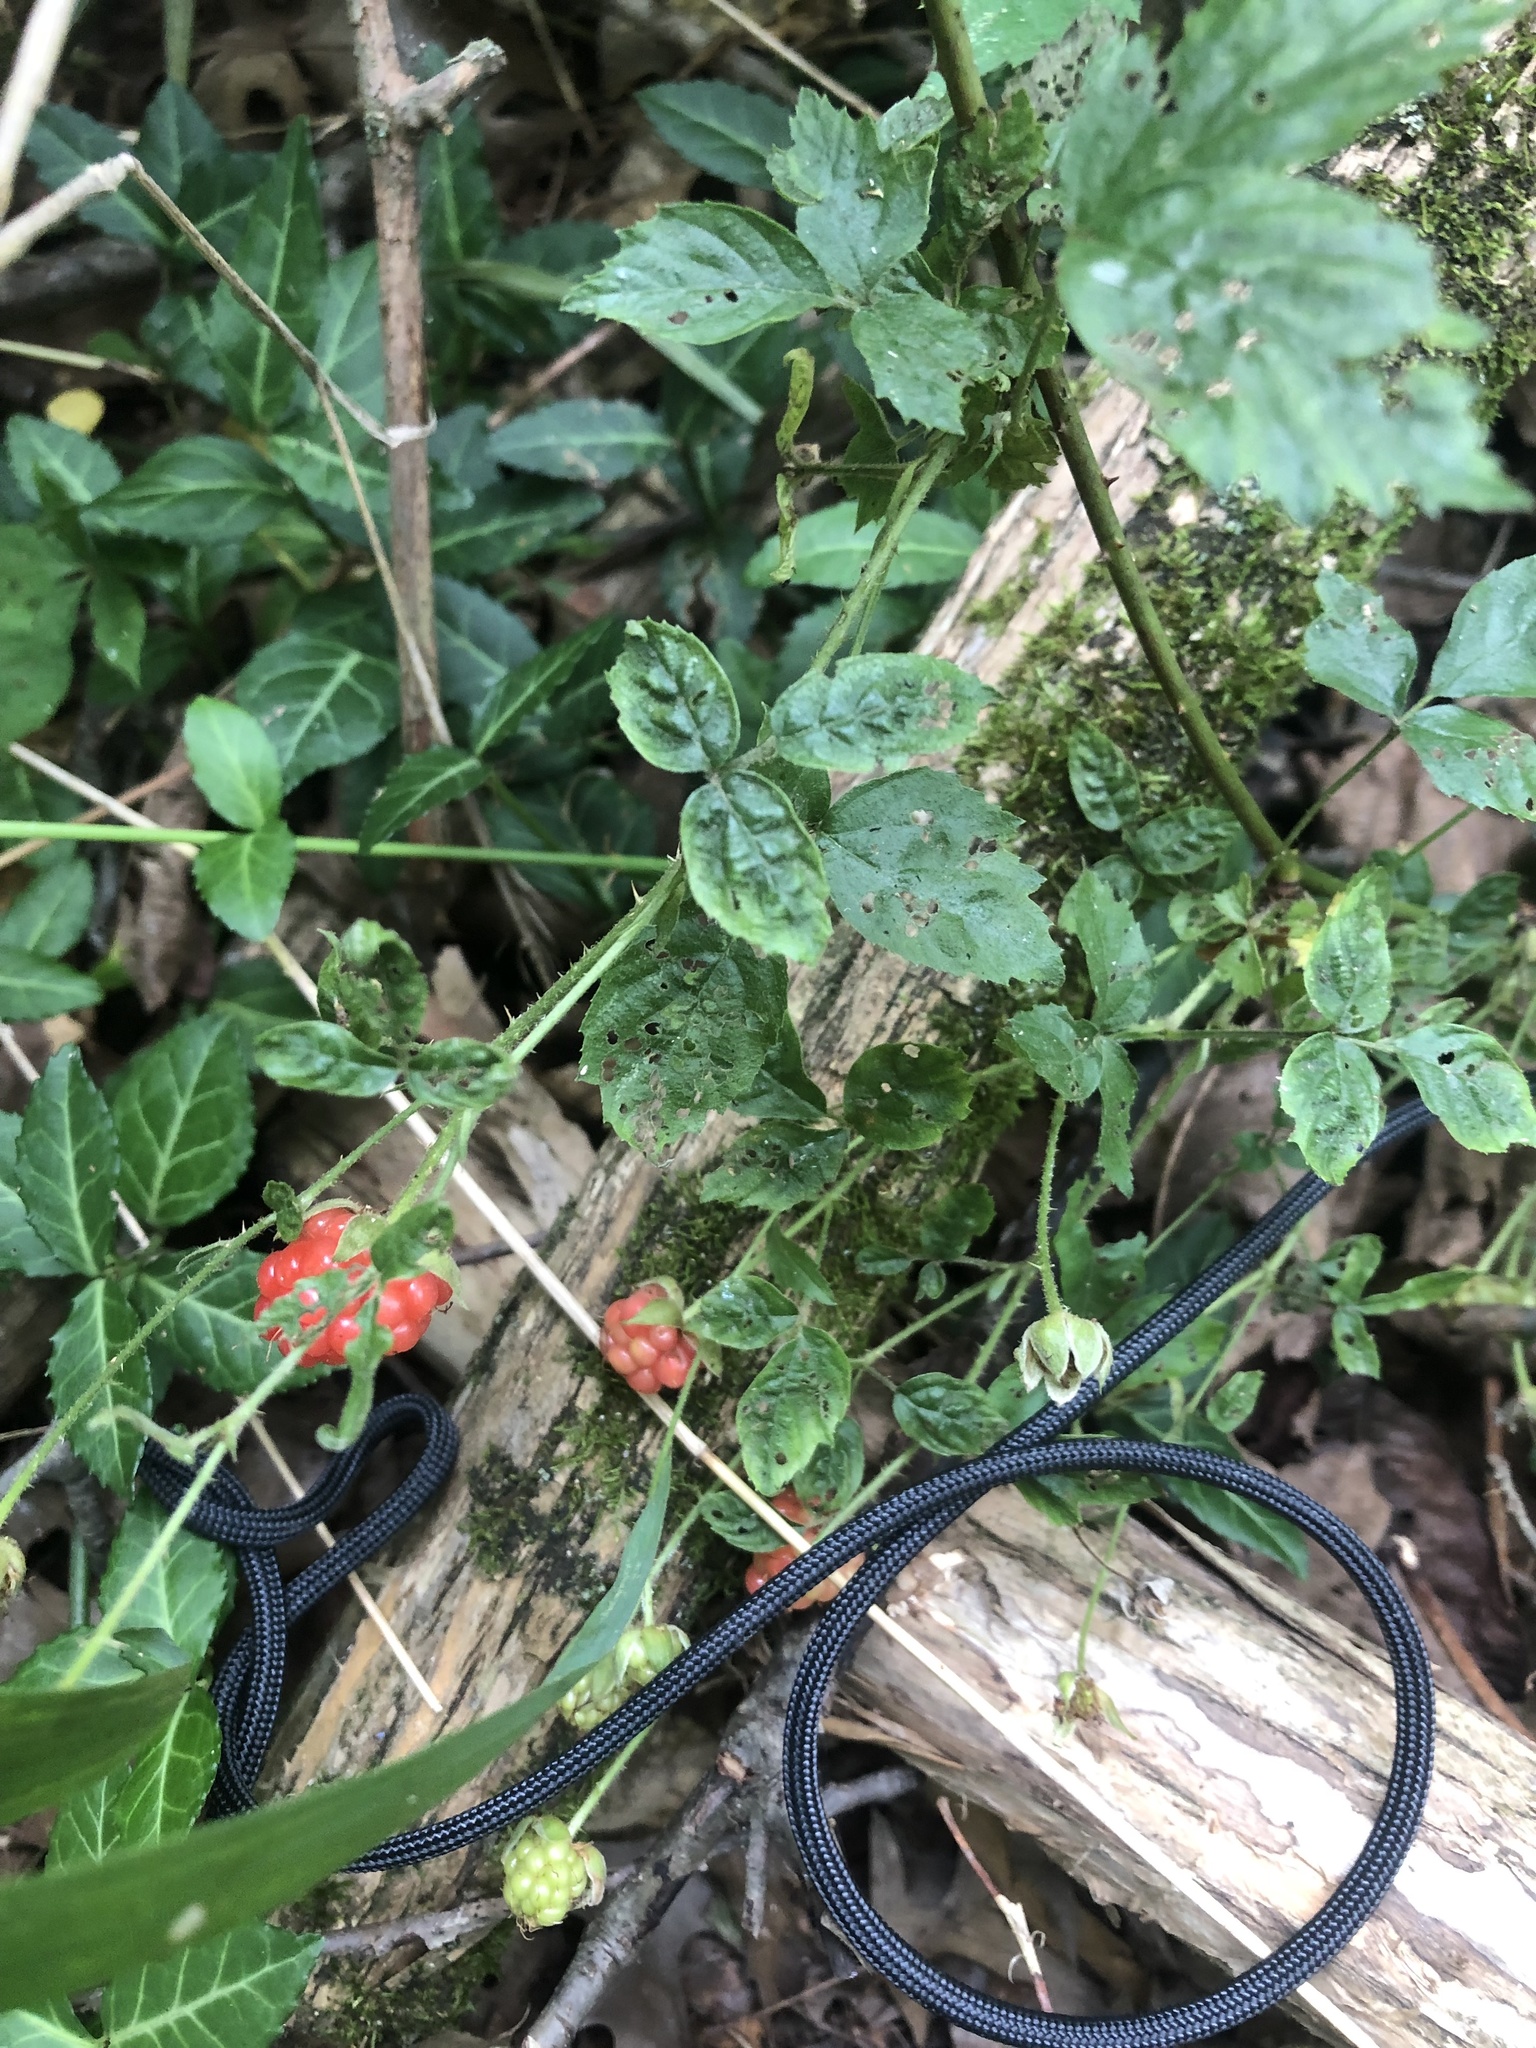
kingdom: Plantae
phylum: Tracheophyta
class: Magnoliopsida
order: Rosales
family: Rosaceae
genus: Rubus
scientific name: Rubus allegheniensis
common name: Allegheny blackberry
